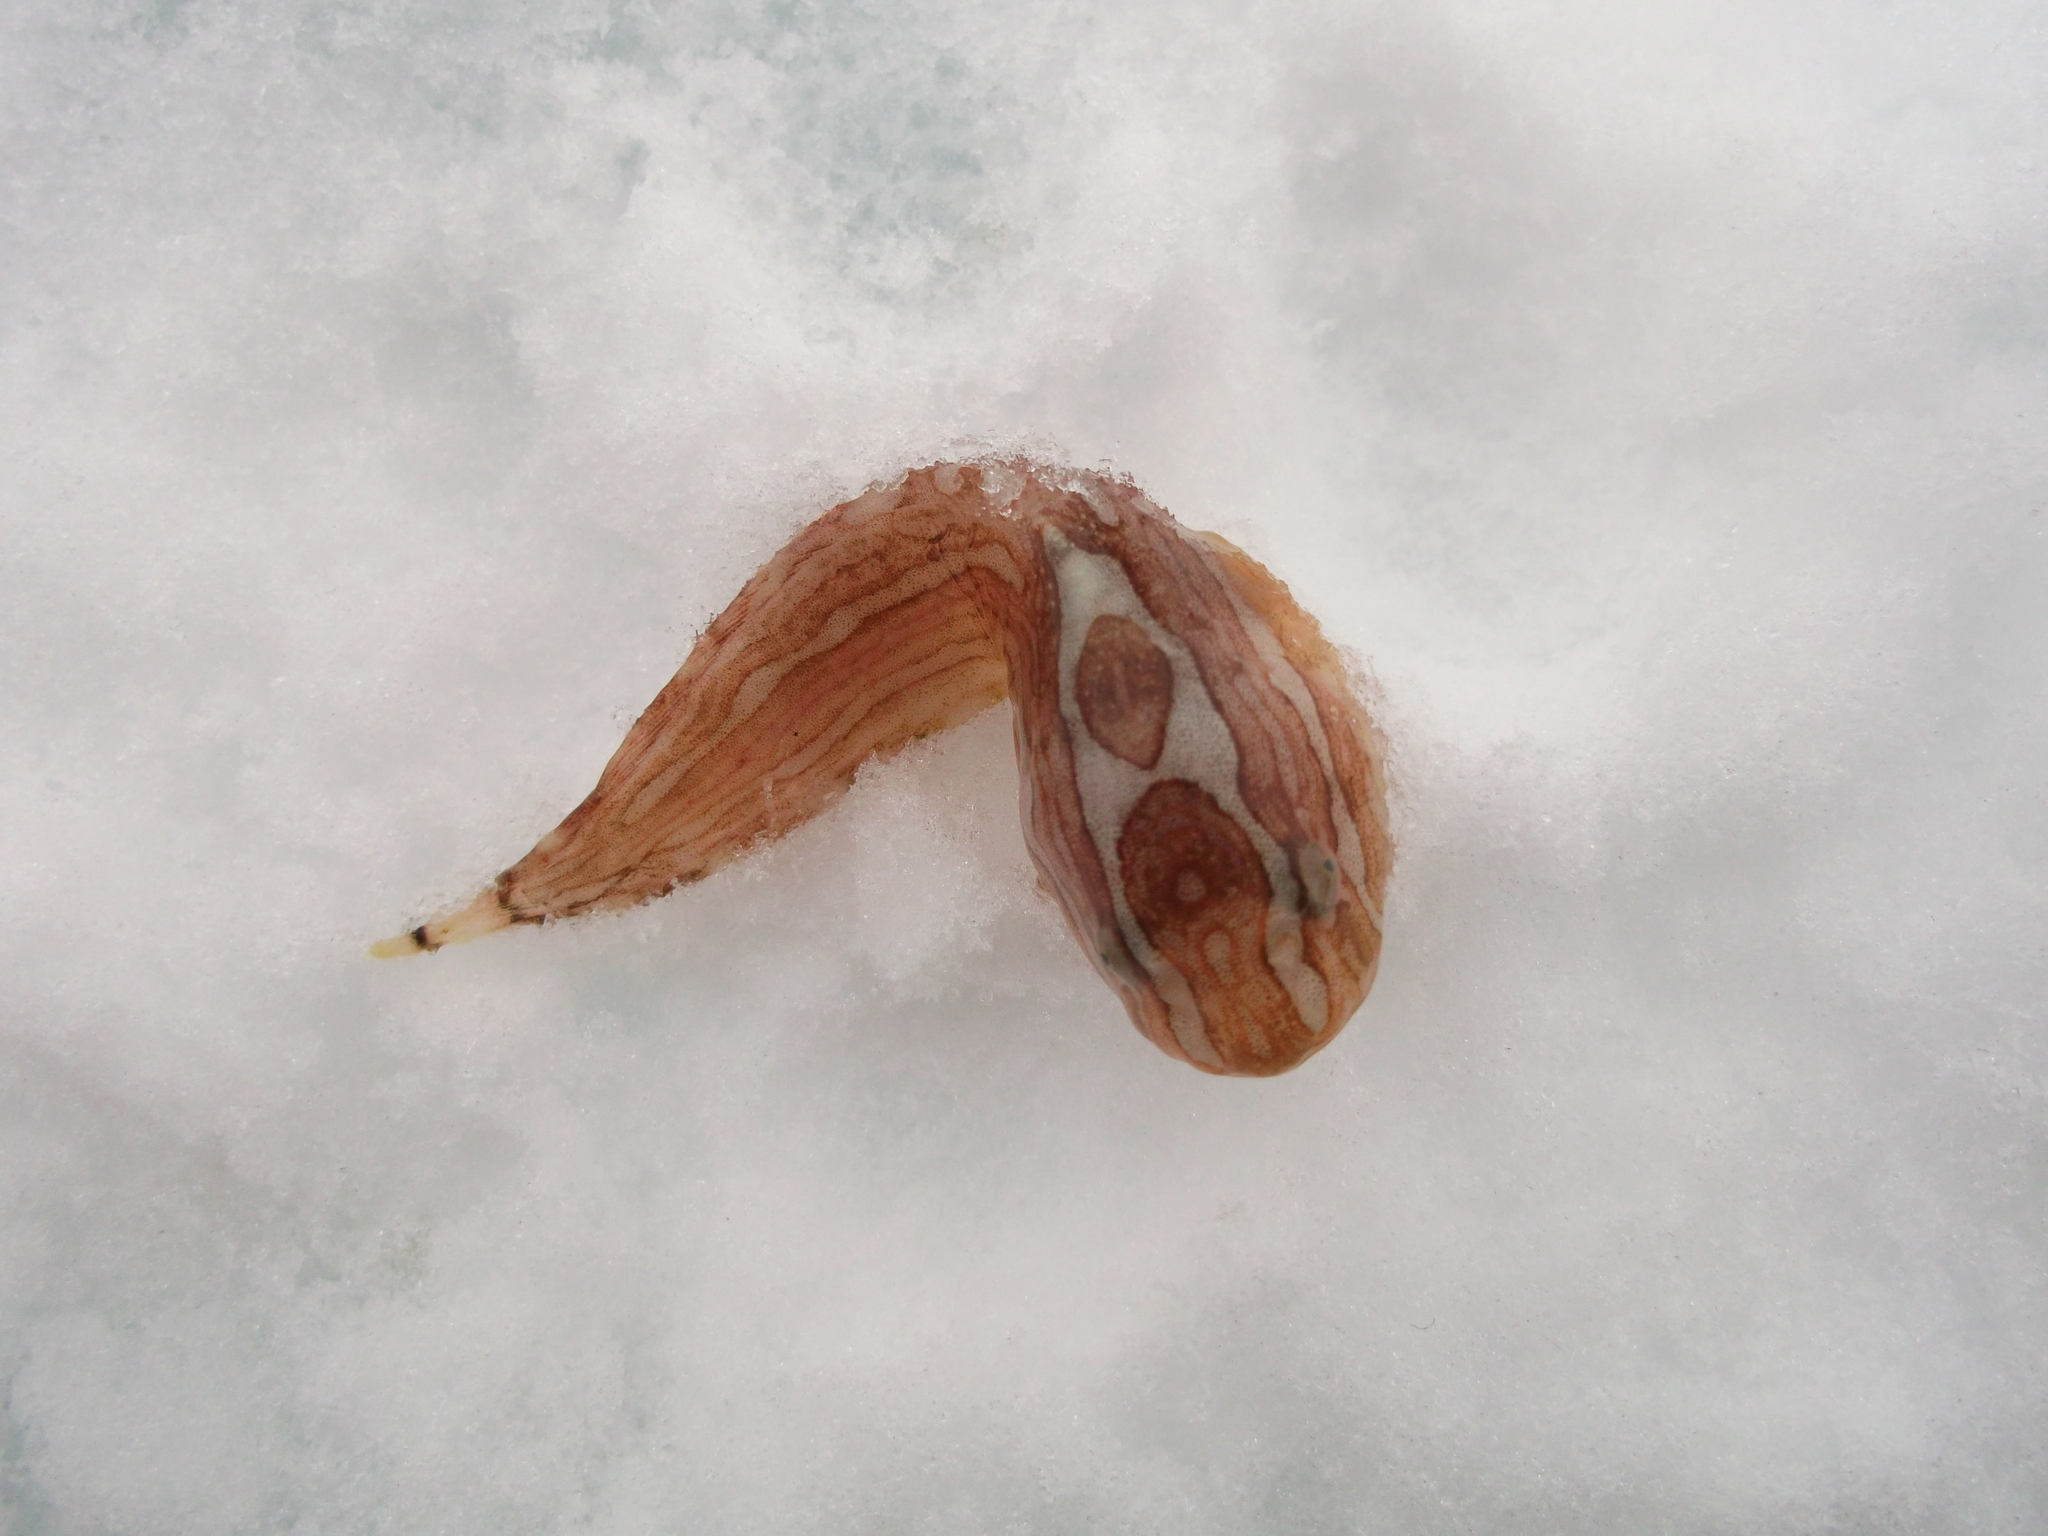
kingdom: Animalia
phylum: Chordata
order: Scorpaeniformes
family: Liparidae
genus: Liparis
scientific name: Liparis tunicatus
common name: Kelp snailfish
